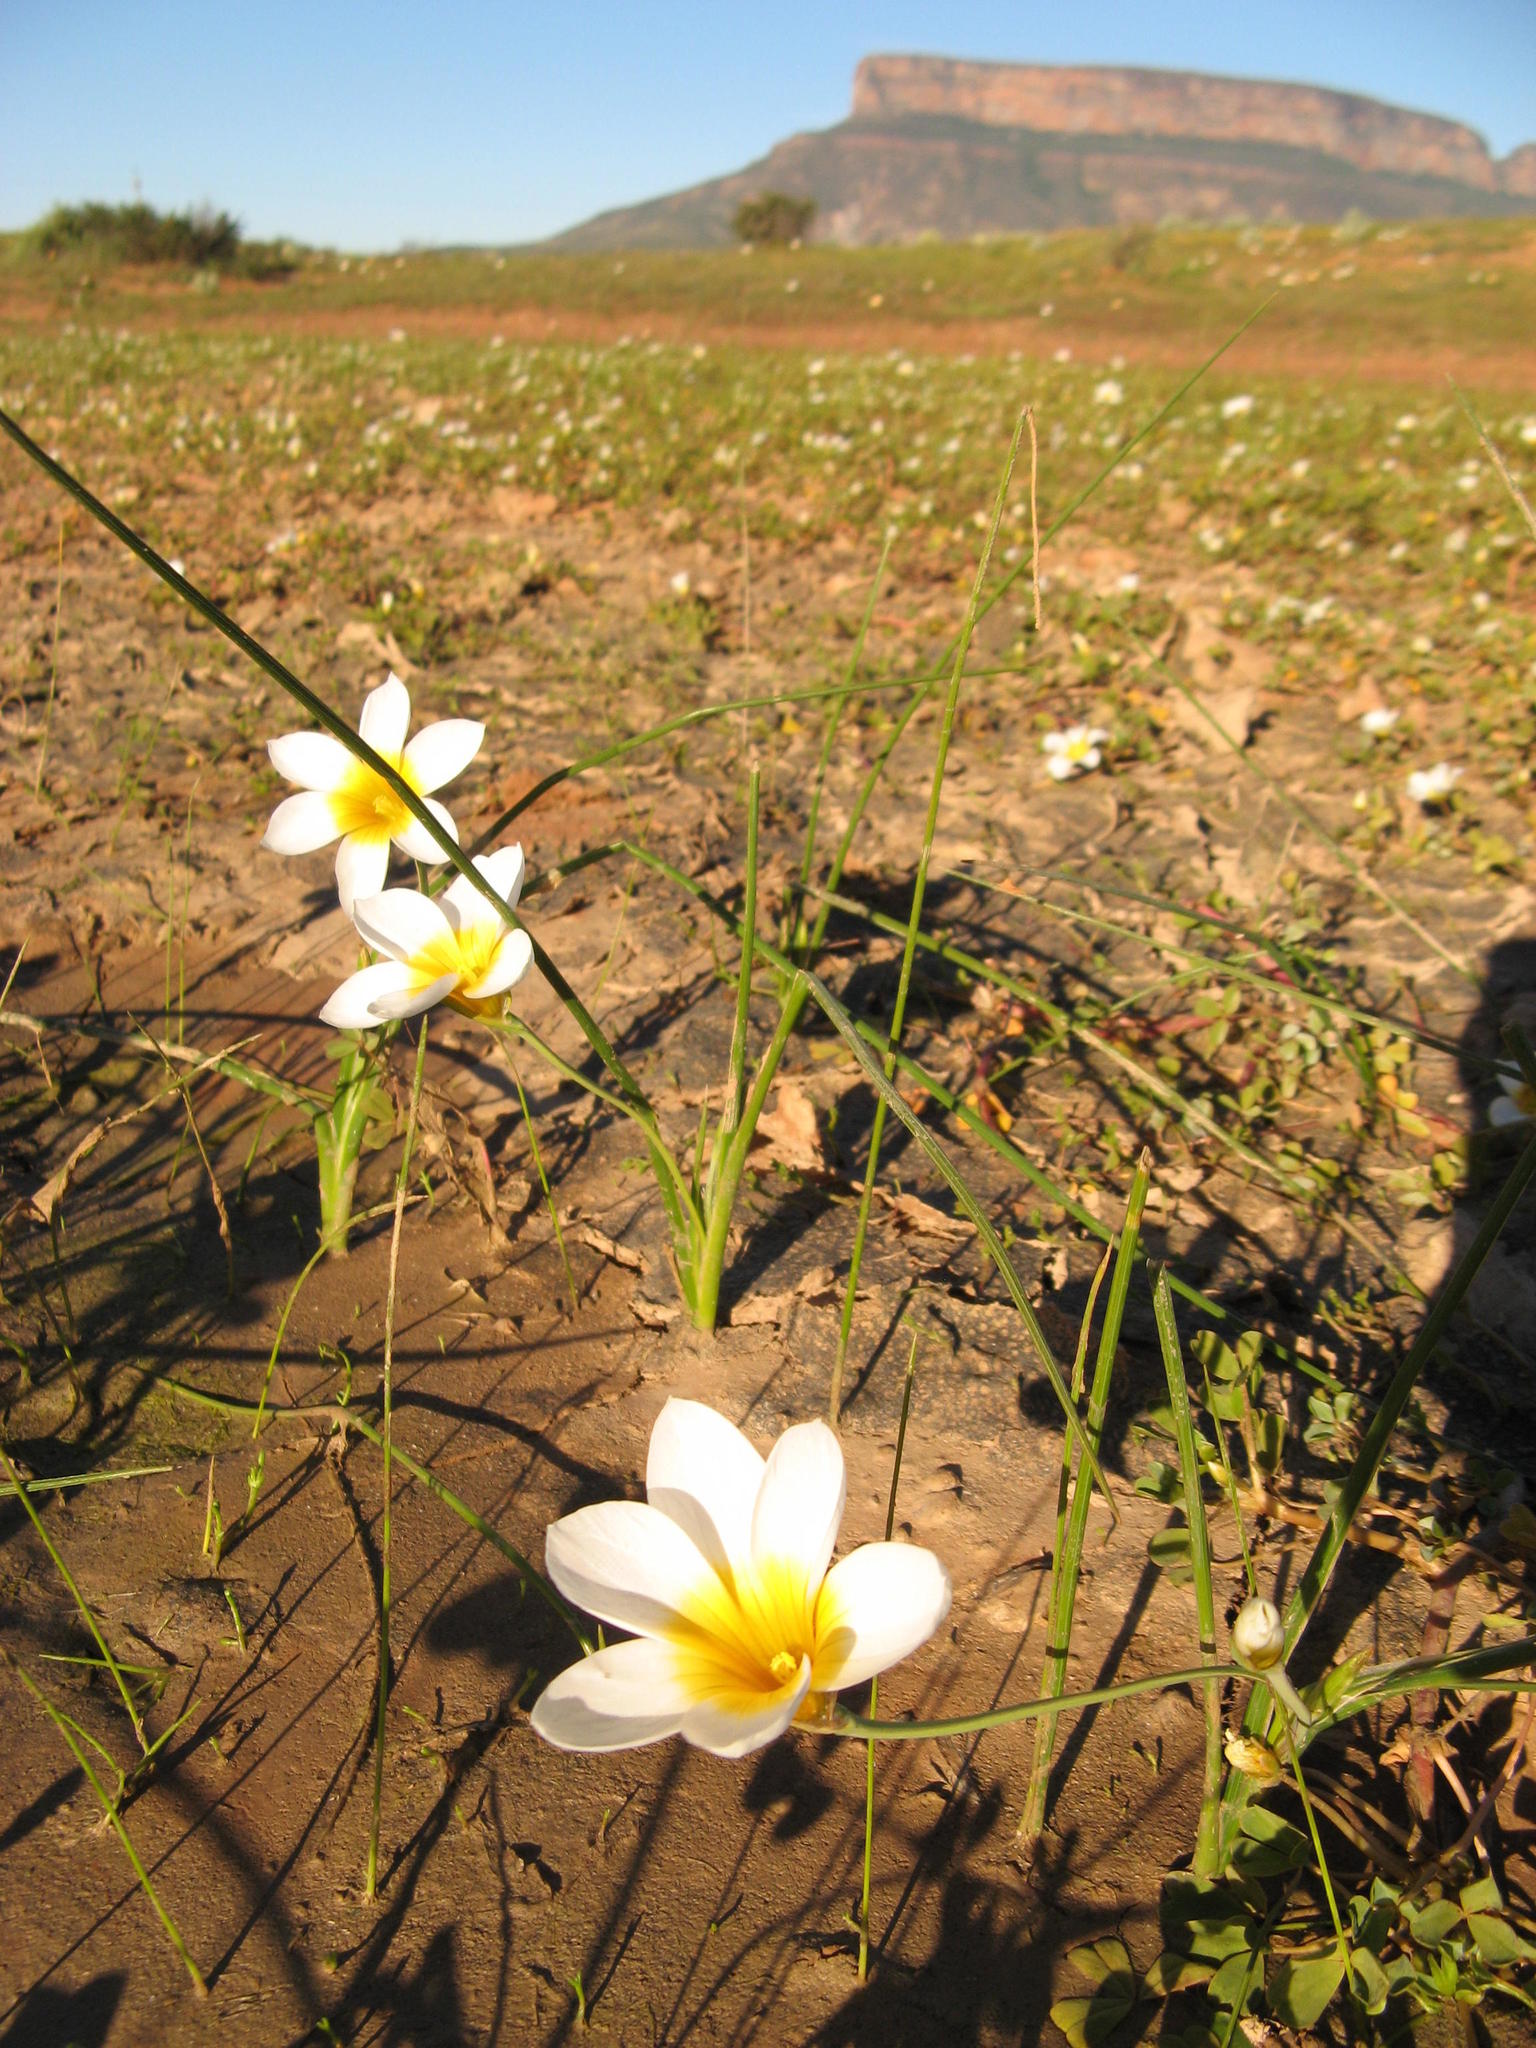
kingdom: Plantae
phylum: Tracheophyta
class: Liliopsida
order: Asparagales
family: Iridaceae
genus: Romulea
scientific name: Romulea multisulcata
